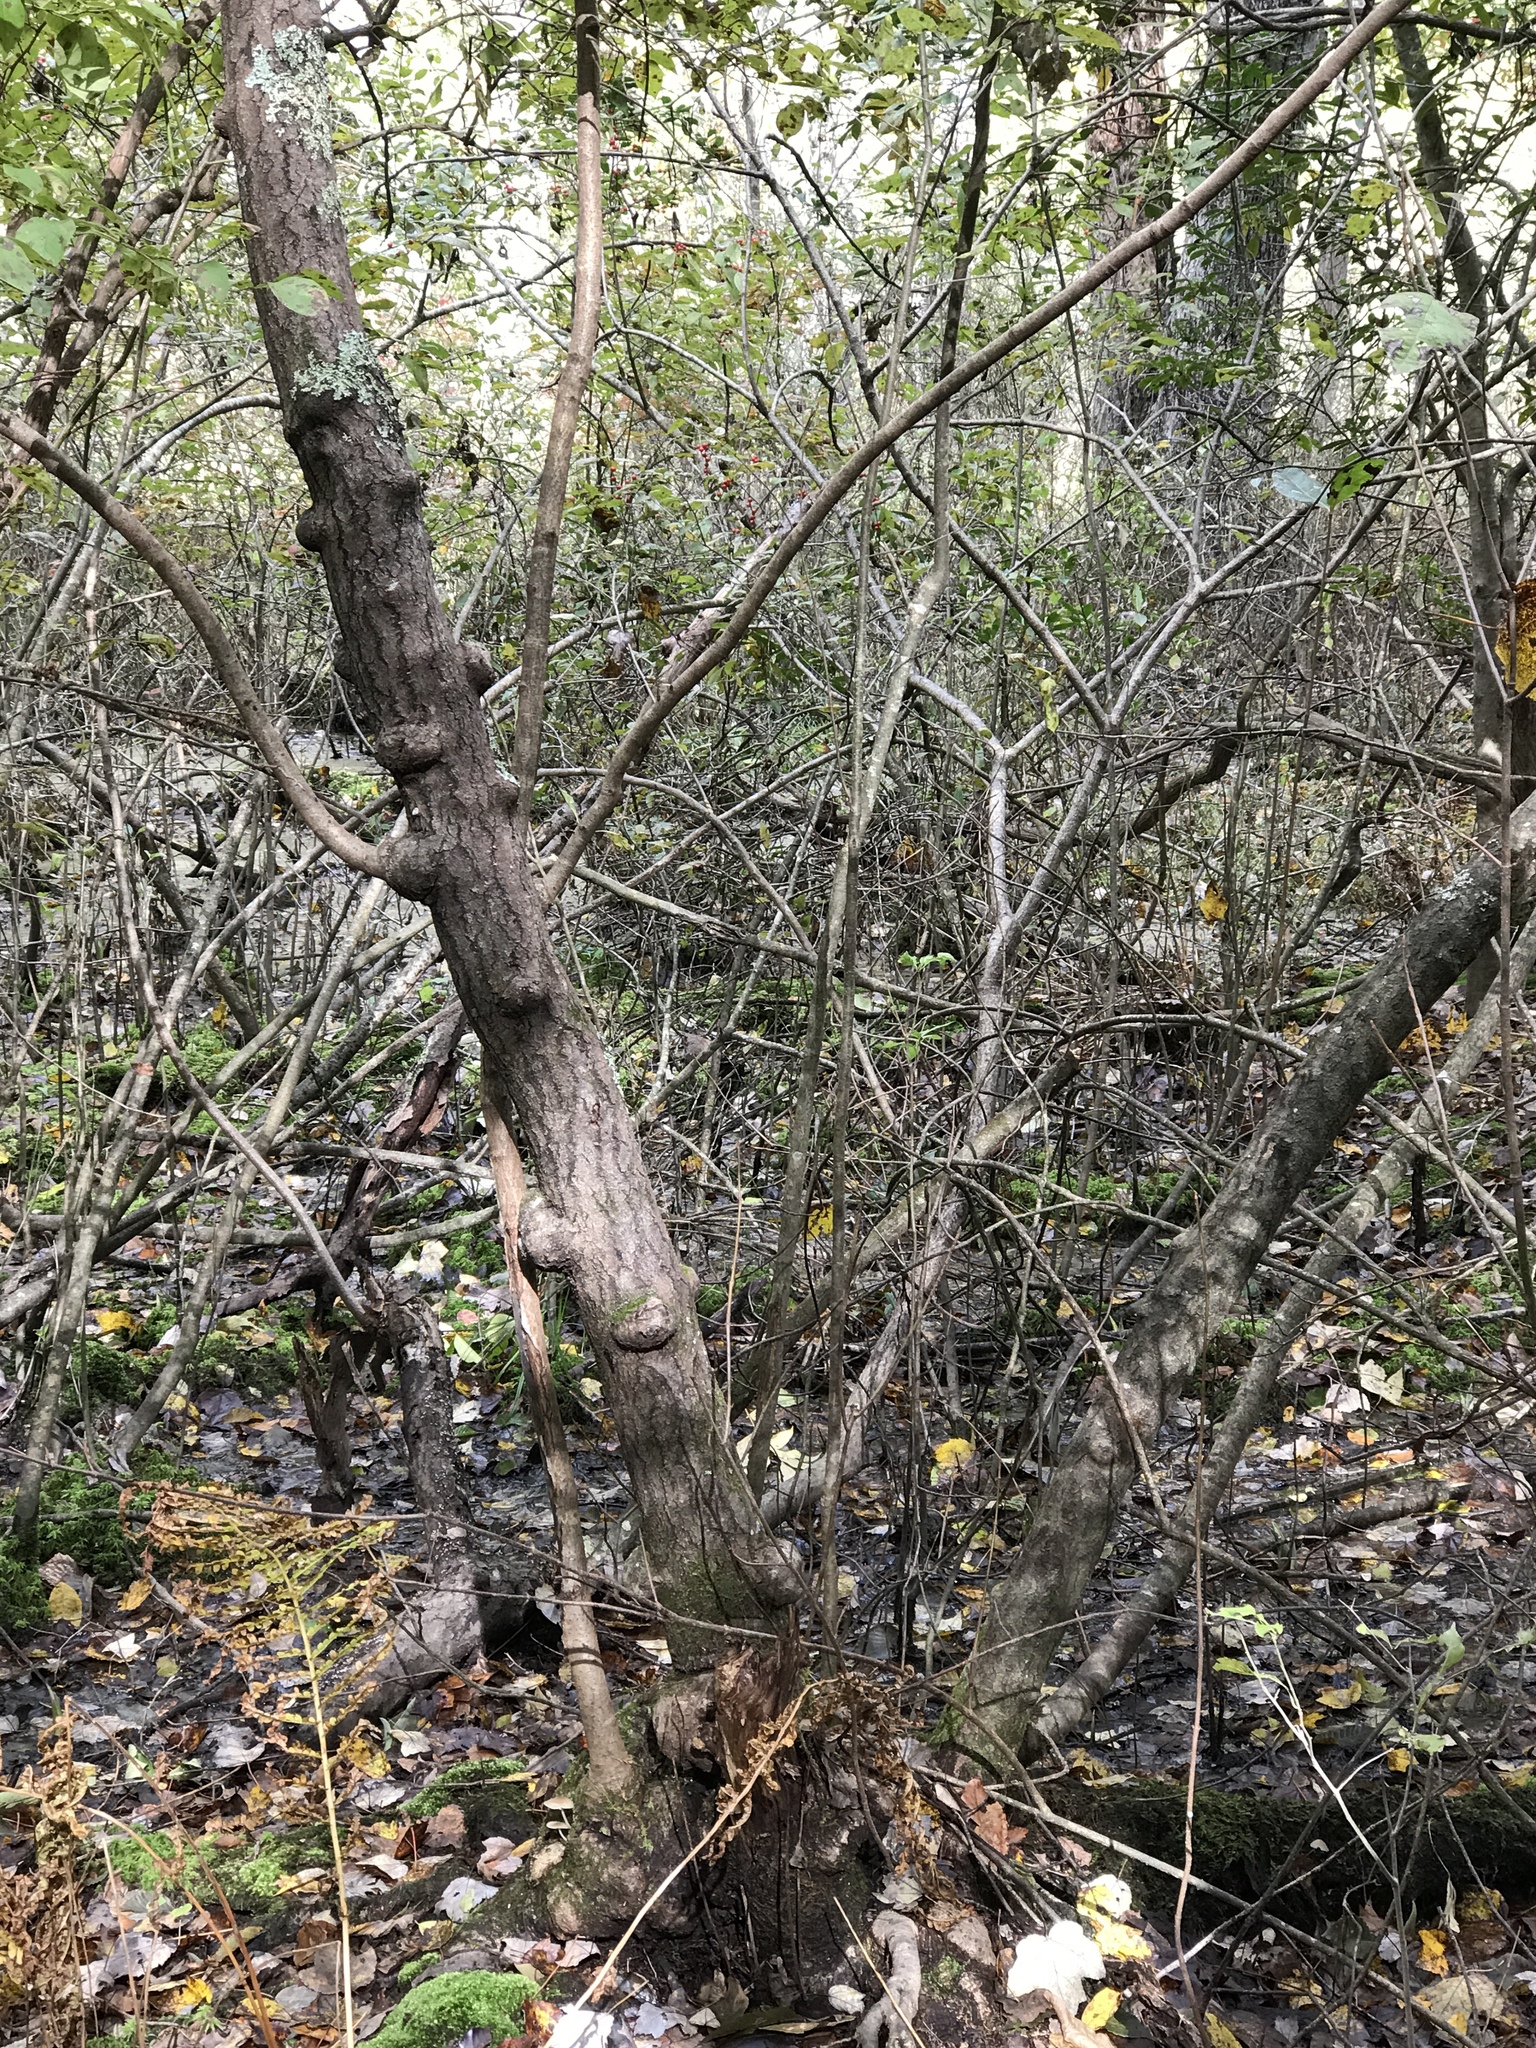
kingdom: Plantae
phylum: Tracheophyta
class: Magnoliopsida
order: Sapindales
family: Anacardiaceae
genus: Toxicodendron
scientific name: Toxicodendron vernix
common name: Poison sumac
